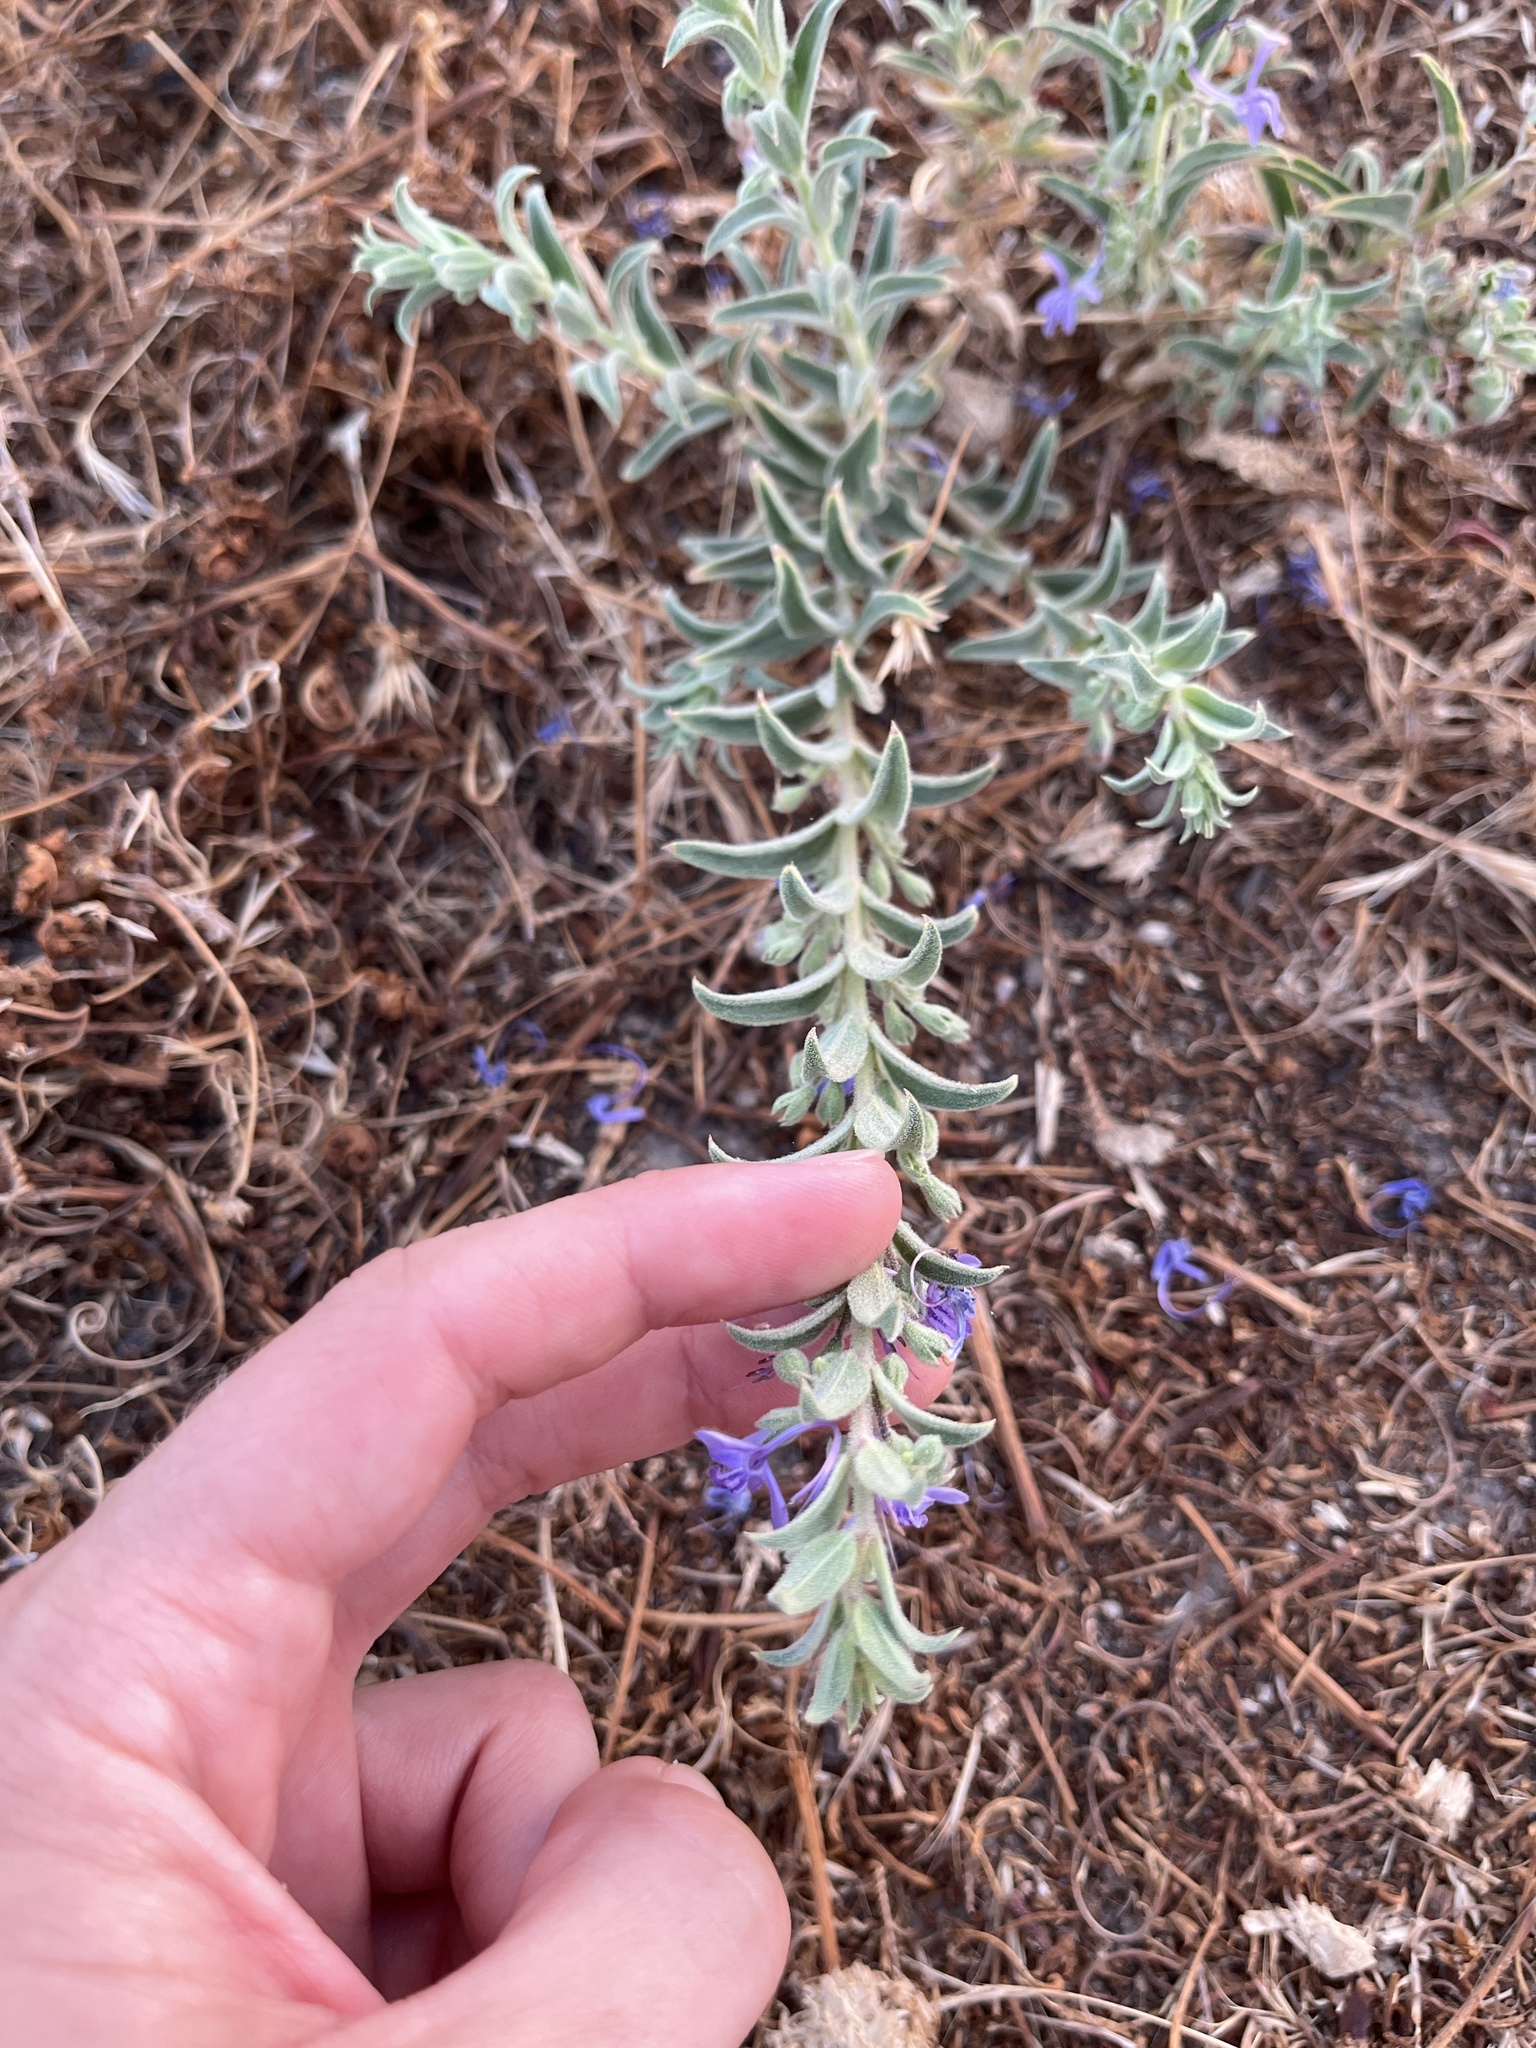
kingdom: Plantae
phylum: Tracheophyta
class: Magnoliopsida
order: Lamiales
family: Lamiaceae
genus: Trichostema
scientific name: Trichostema lanceolatum
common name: Vinegar-weed
